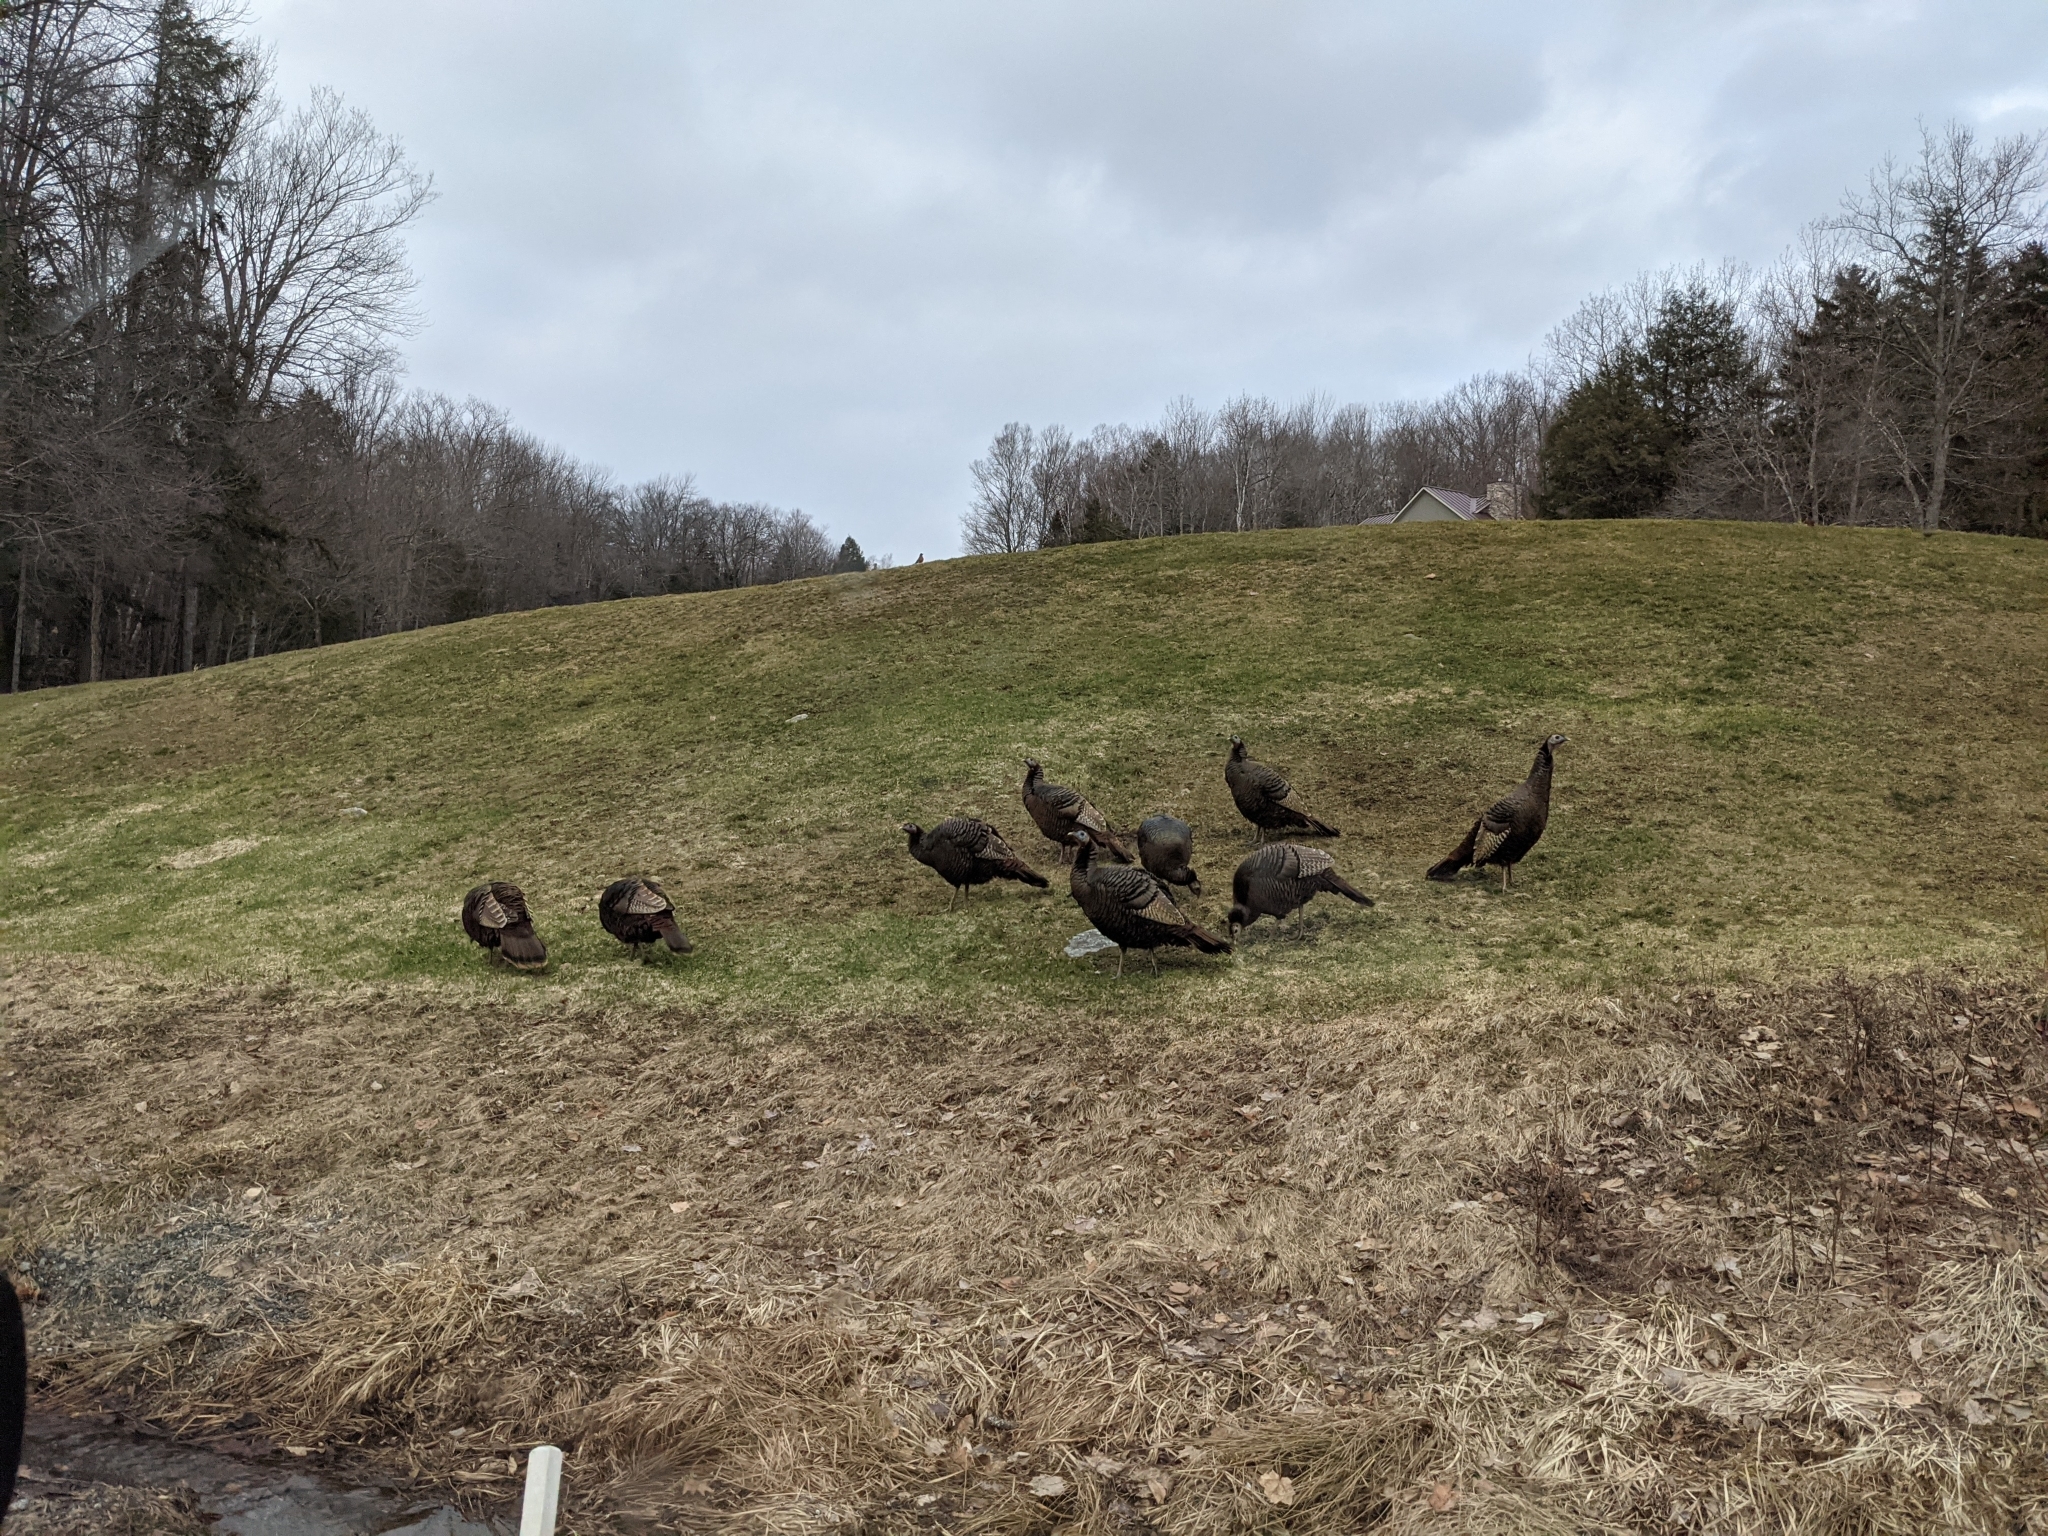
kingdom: Animalia
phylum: Chordata
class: Aves
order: Galliformes
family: Phasianidae
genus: Meleagris
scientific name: Meleagris gallopavo
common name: Wild turkey
